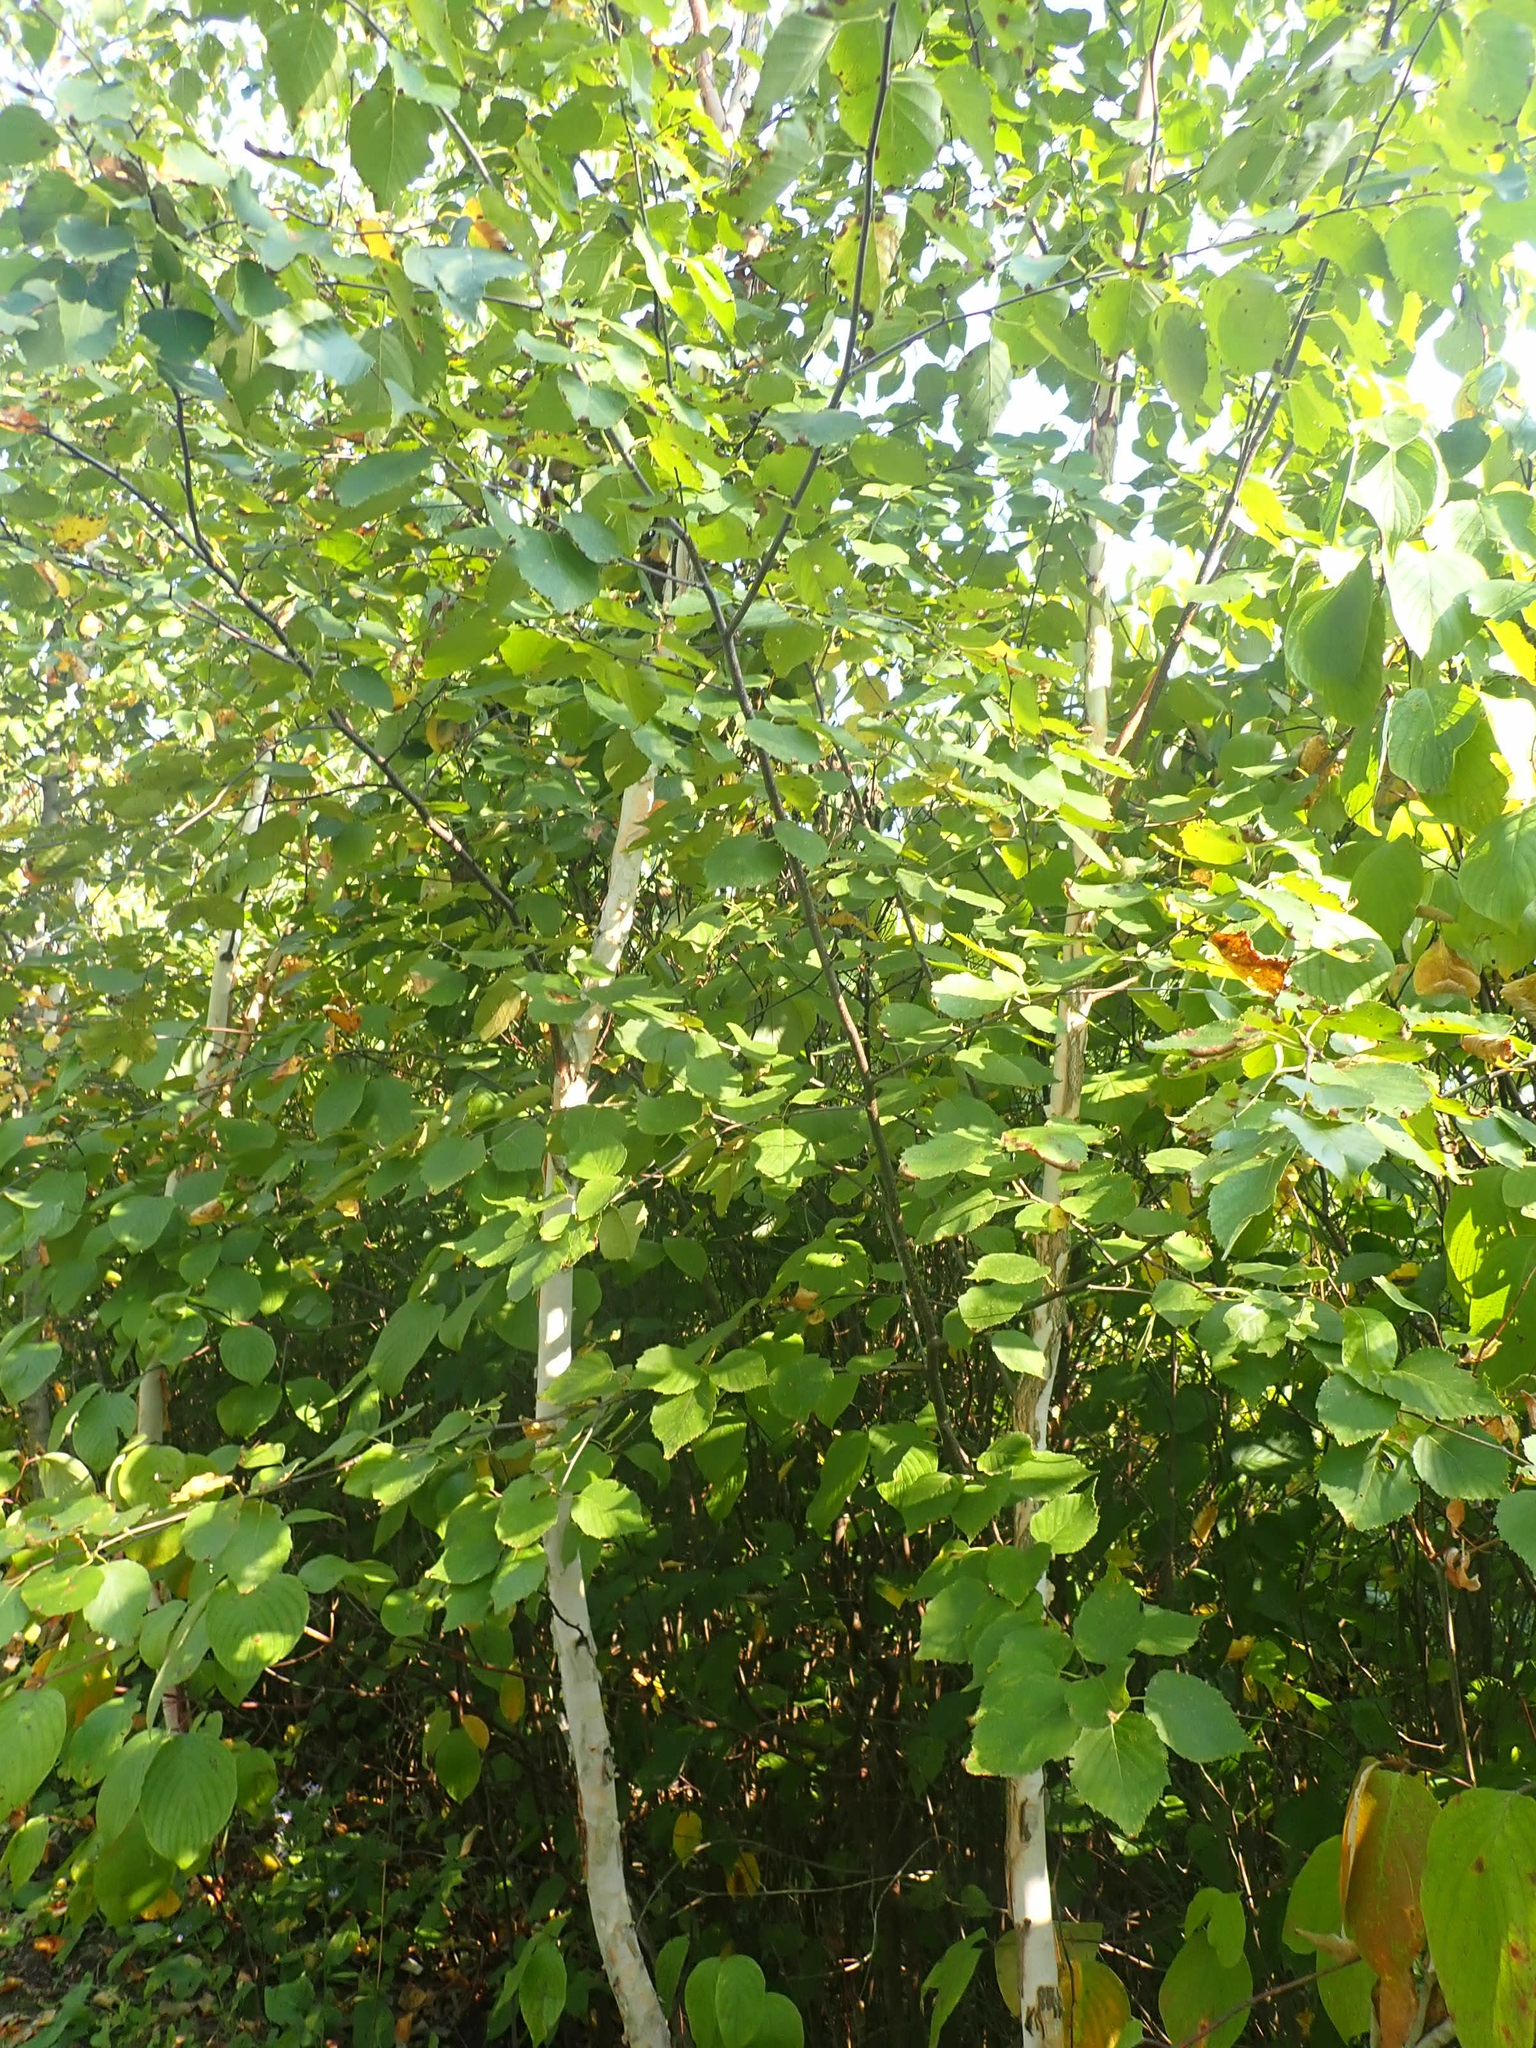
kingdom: Plantae
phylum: Tracheophyta
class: Magnoliopsida
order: Fagales
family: Betulaceae
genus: Betula
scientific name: Betula papyrifera
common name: Paper birch
